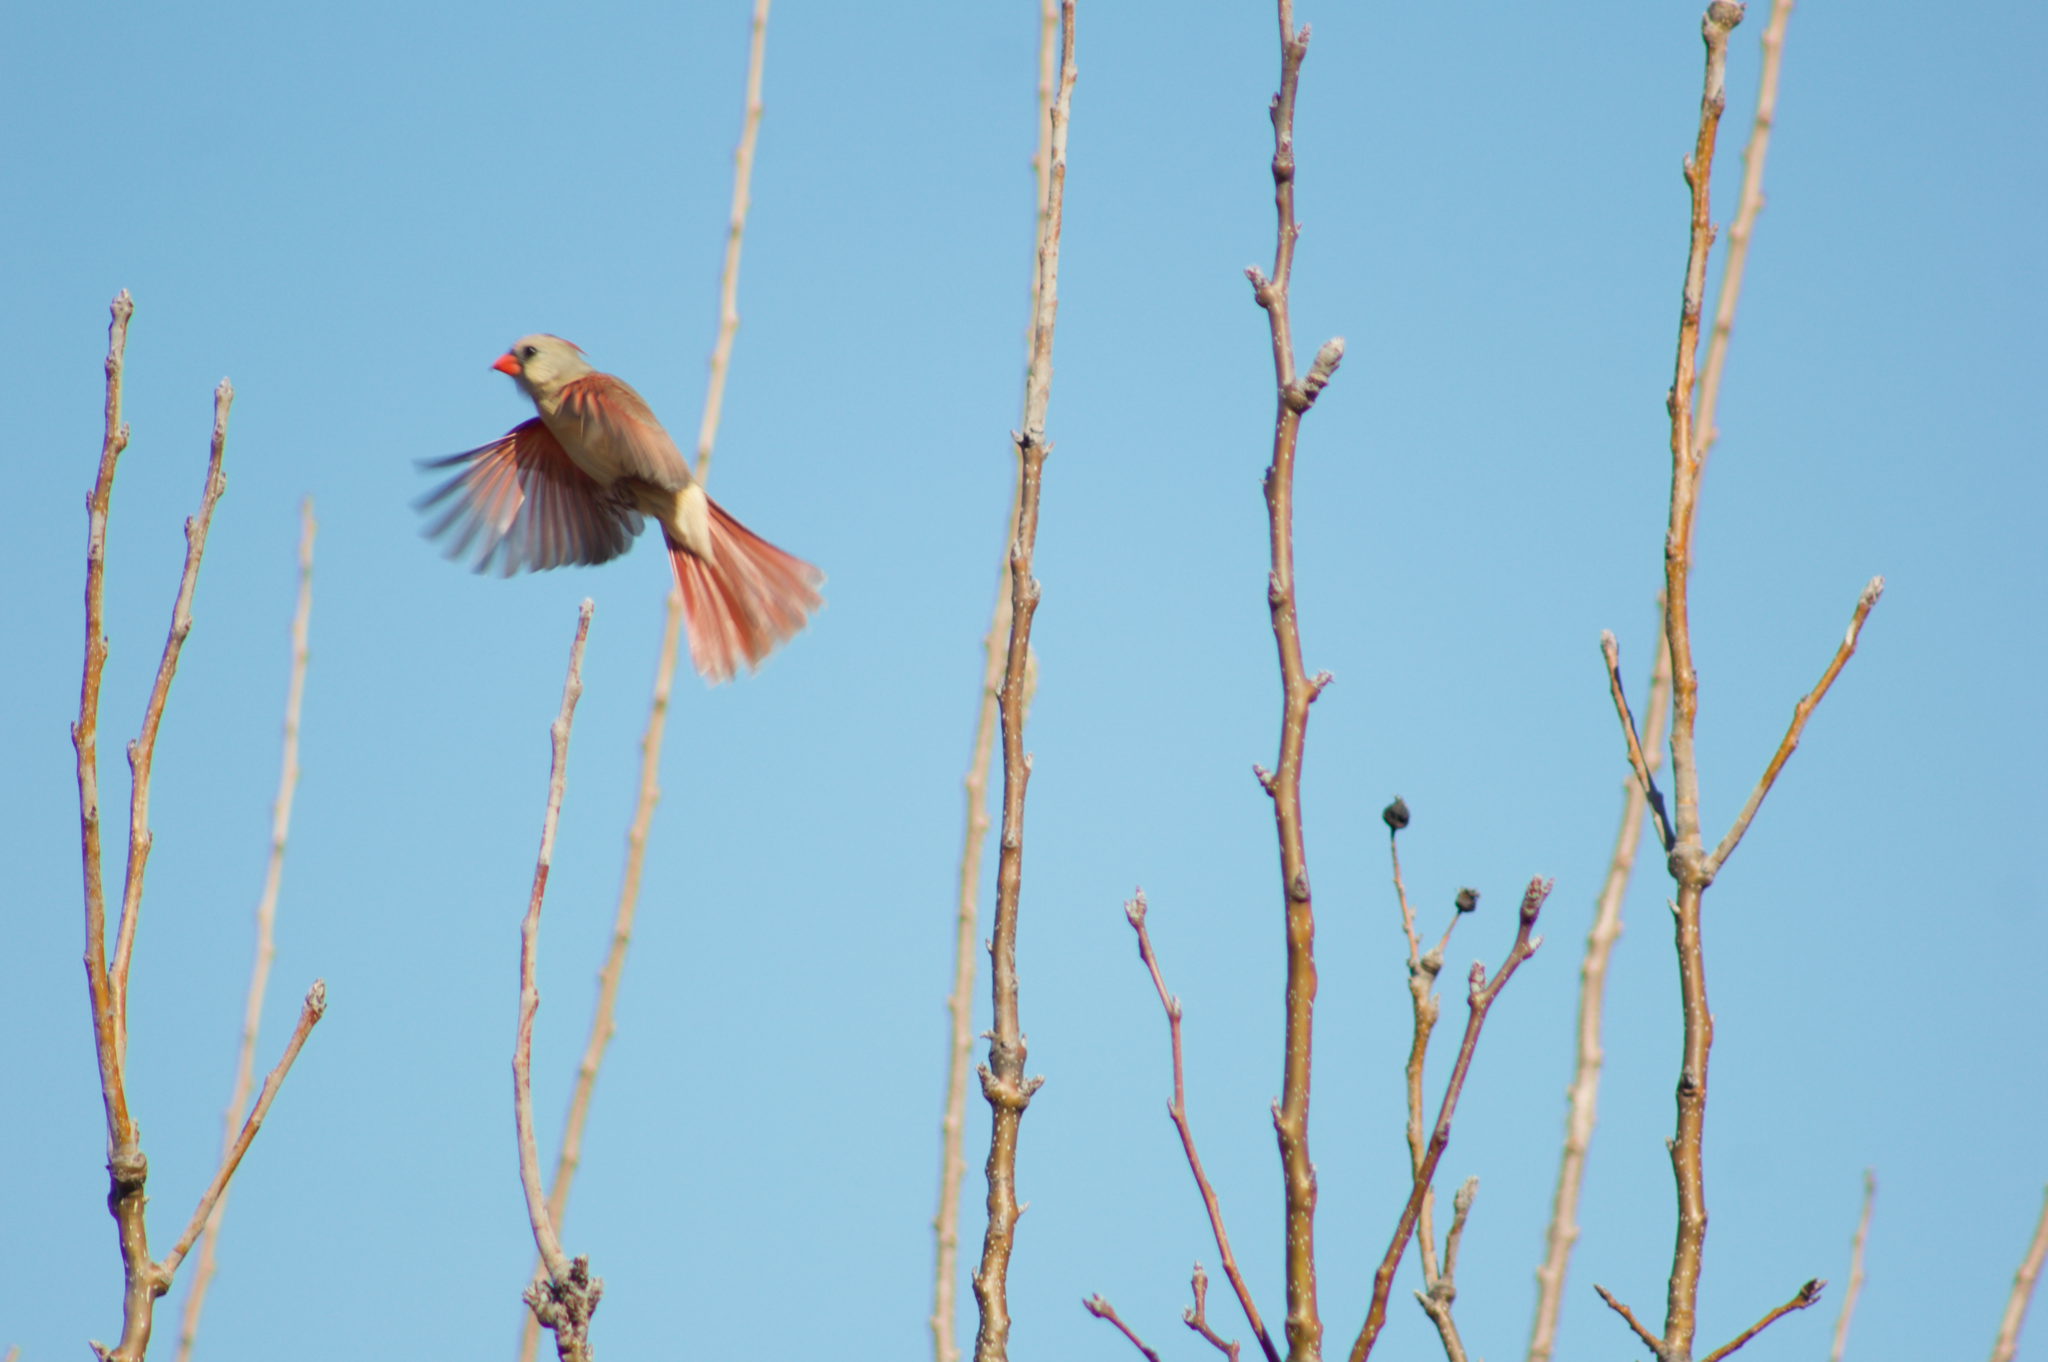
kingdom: Animalia
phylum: Chordata
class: Aves
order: Passeriformes
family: Cardinalidae
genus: Cardinalis
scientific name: Cardinalis cardinalis
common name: Northern cardinal
